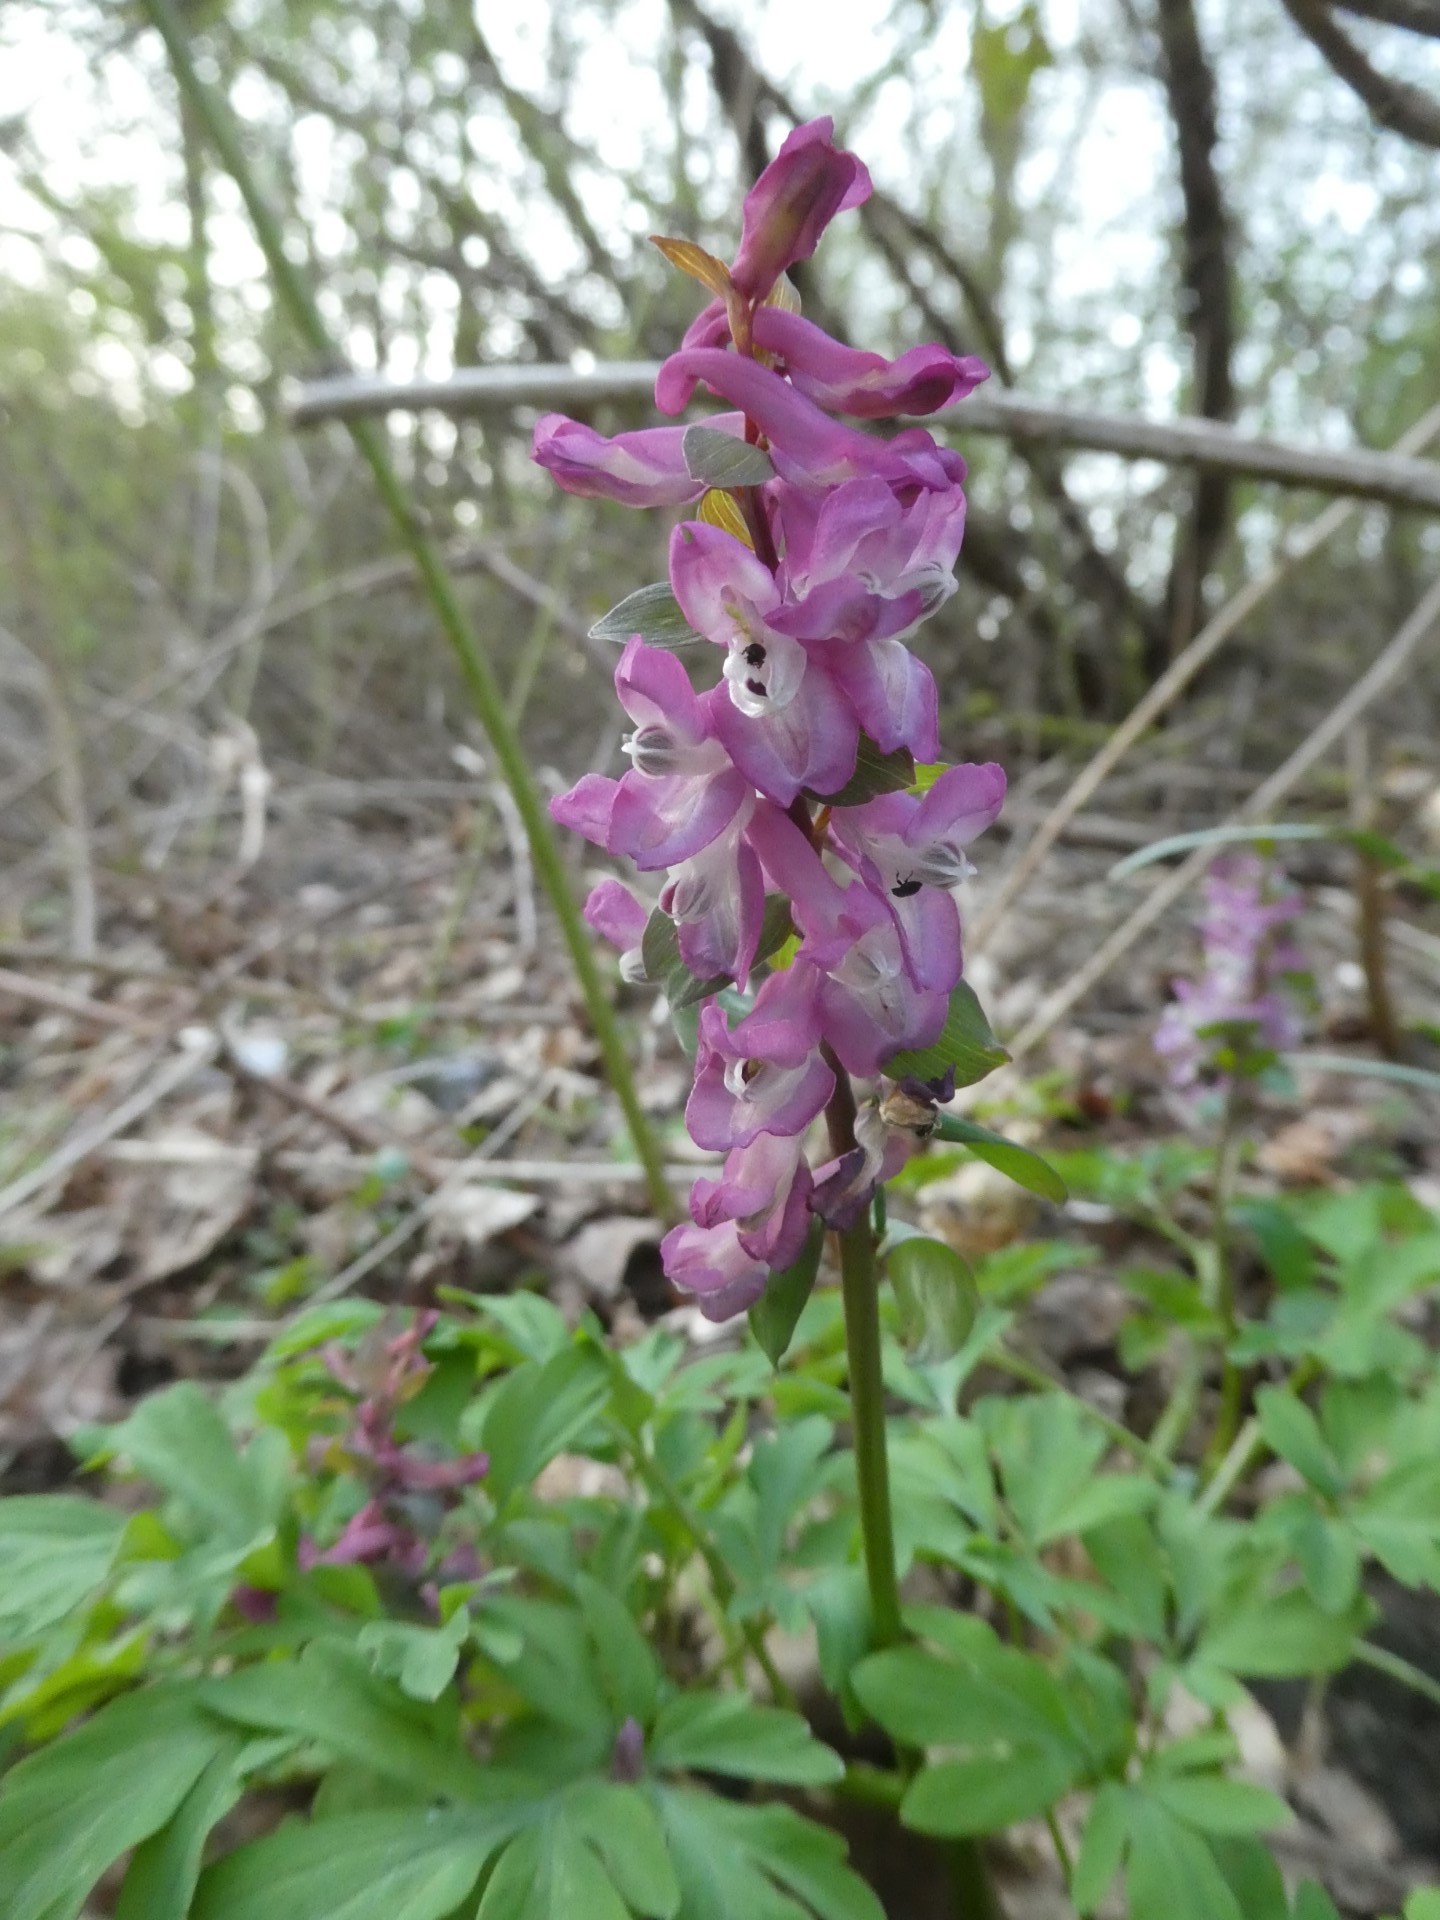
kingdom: Plantae
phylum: Tracheophyta
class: Magnoliopsida
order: Ranunculales
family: Papaveraceae
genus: Corydalis
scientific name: Corydalis cava
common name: Hollowroot
